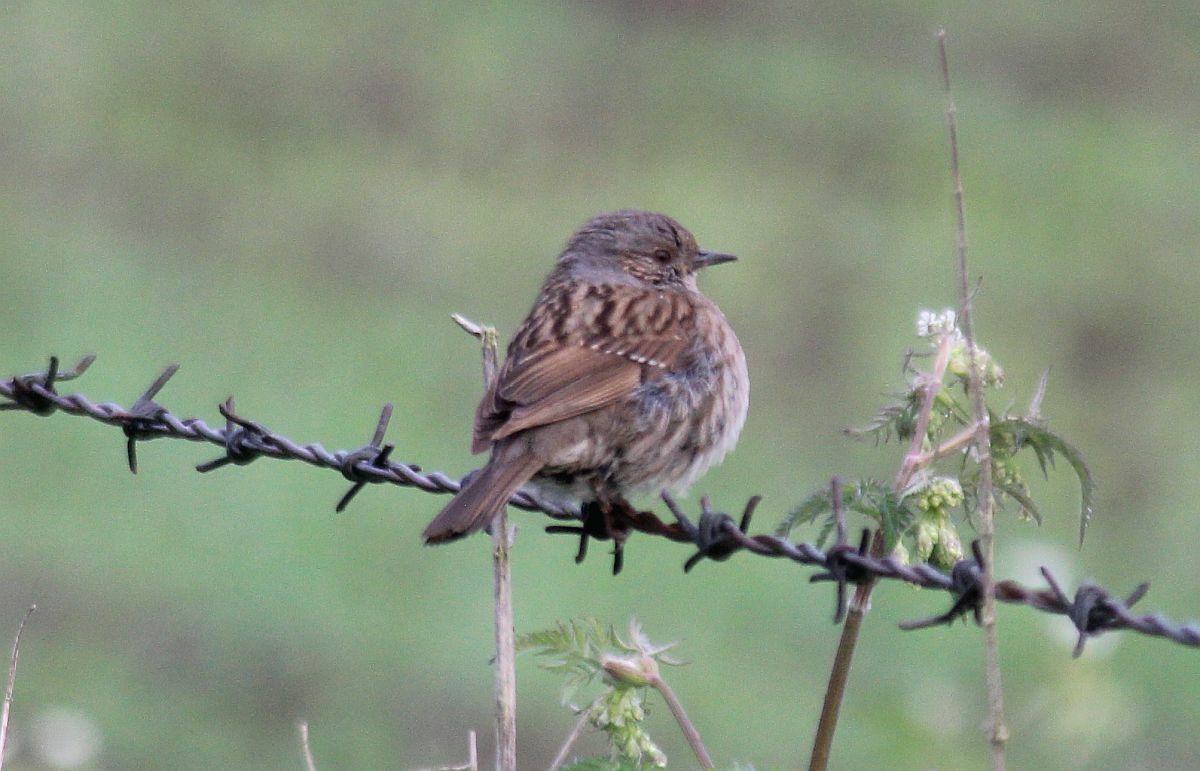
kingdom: Animalia
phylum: Chordata
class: Aves
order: Passeriformes
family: Prunellidae
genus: Prunella
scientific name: Prunella modularis
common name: Dunnock
